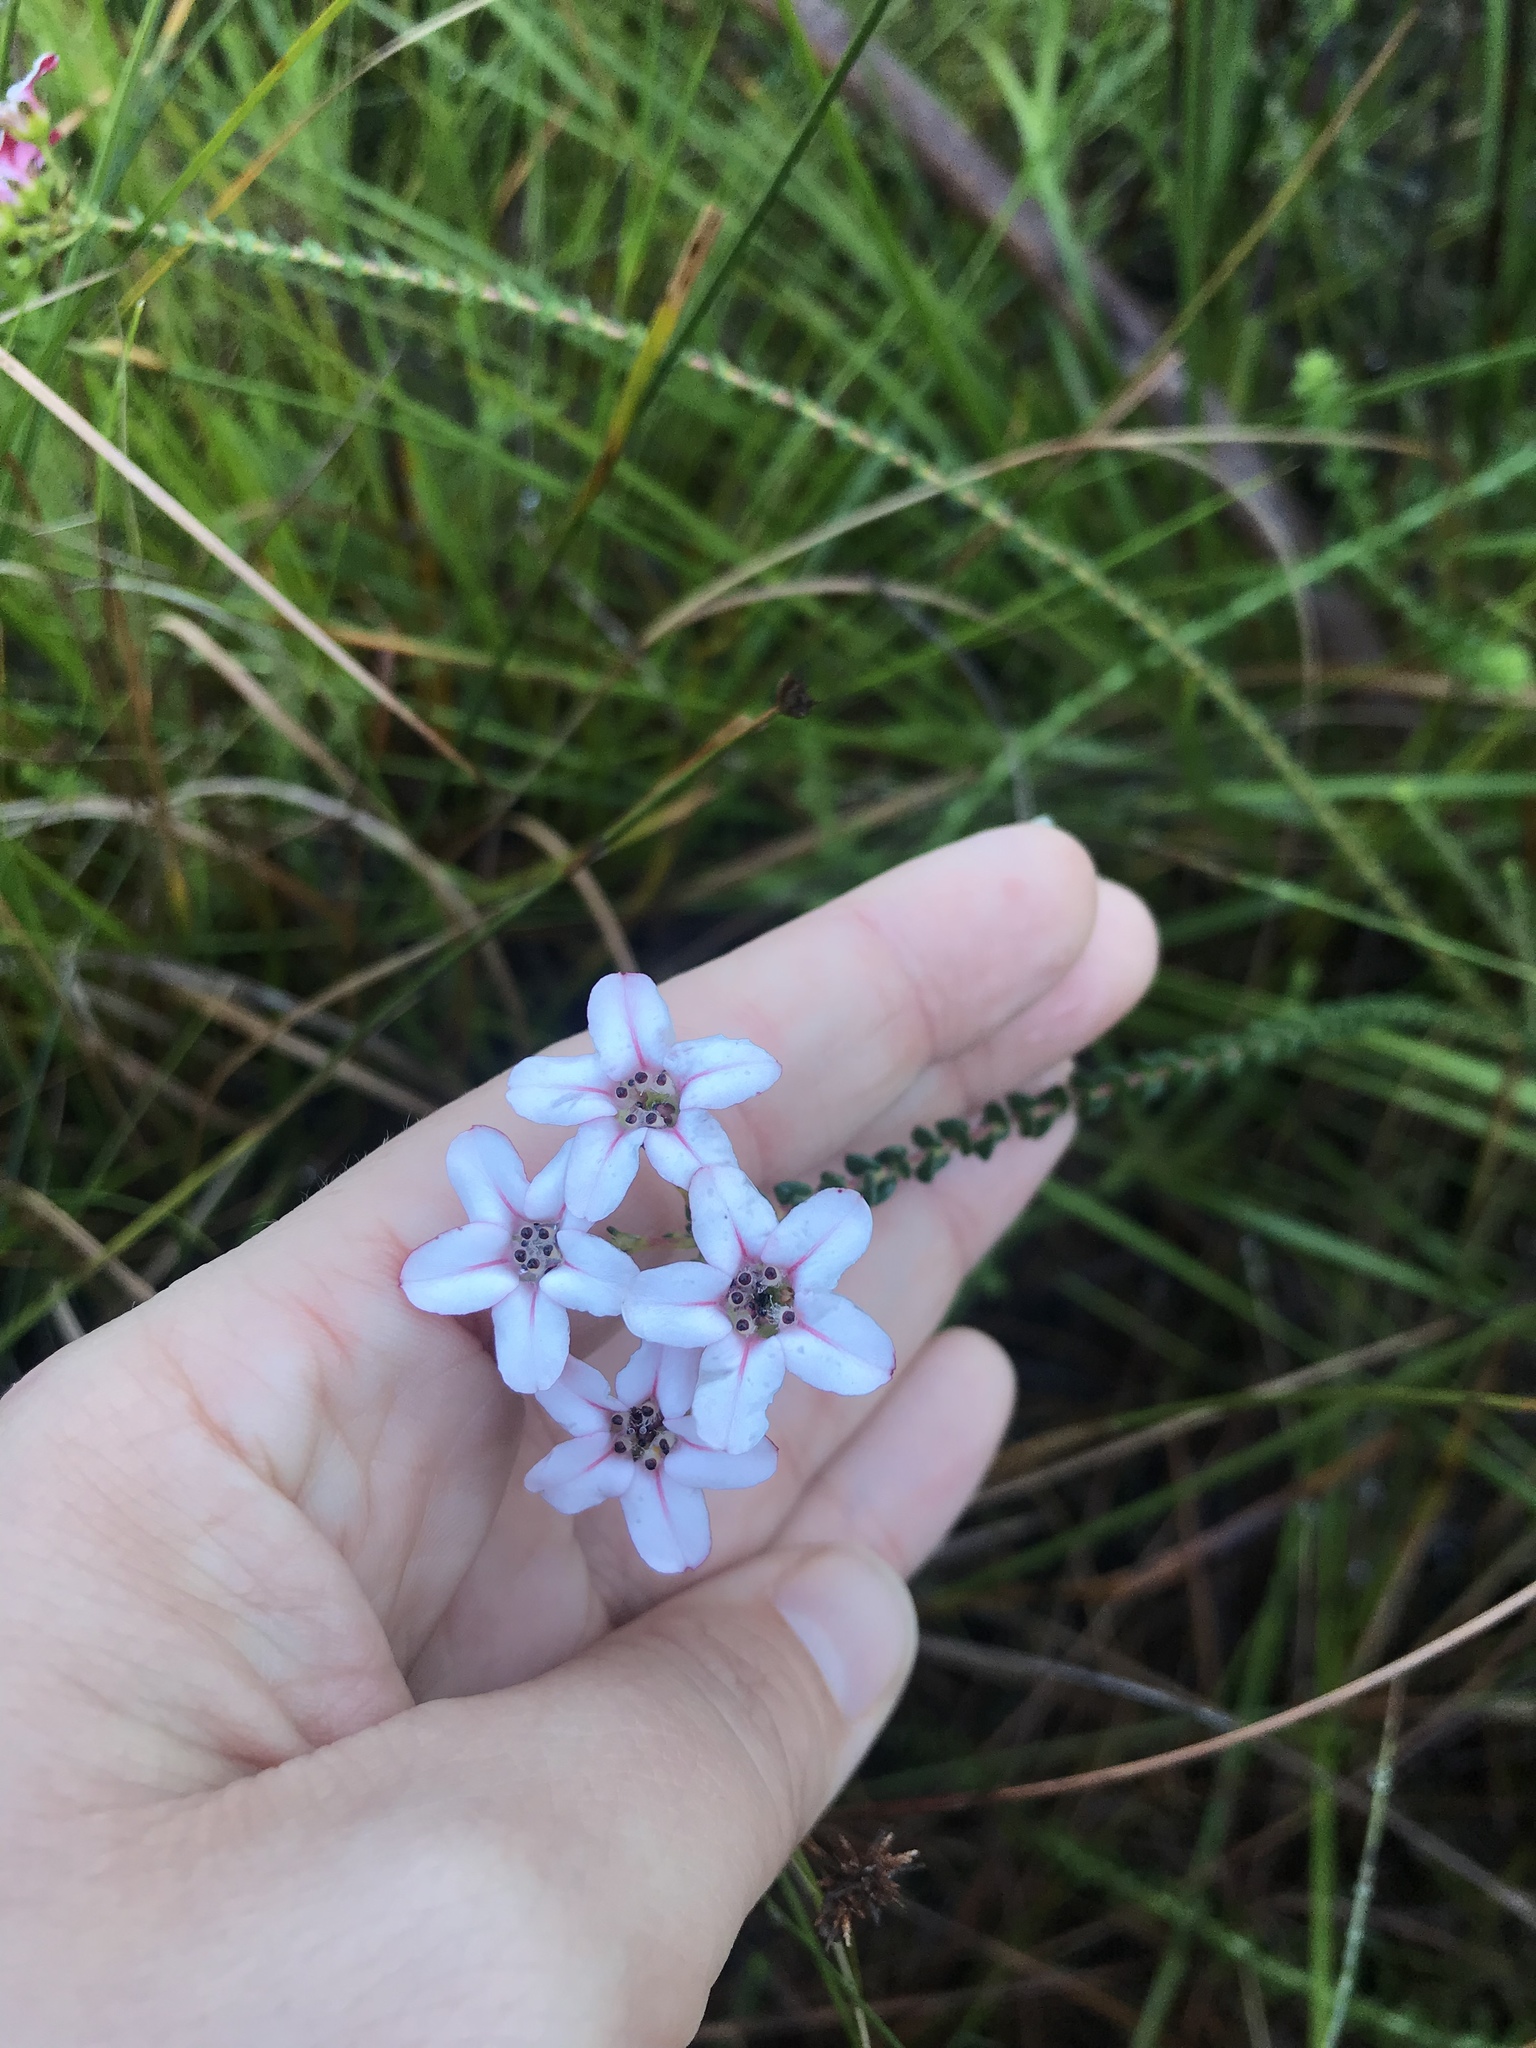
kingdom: Plantae
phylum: Tracheophyta
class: Magnoliopsida
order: Sapindales
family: Rutaceae
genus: Adenandra
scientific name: Adenandra brachyphylla
